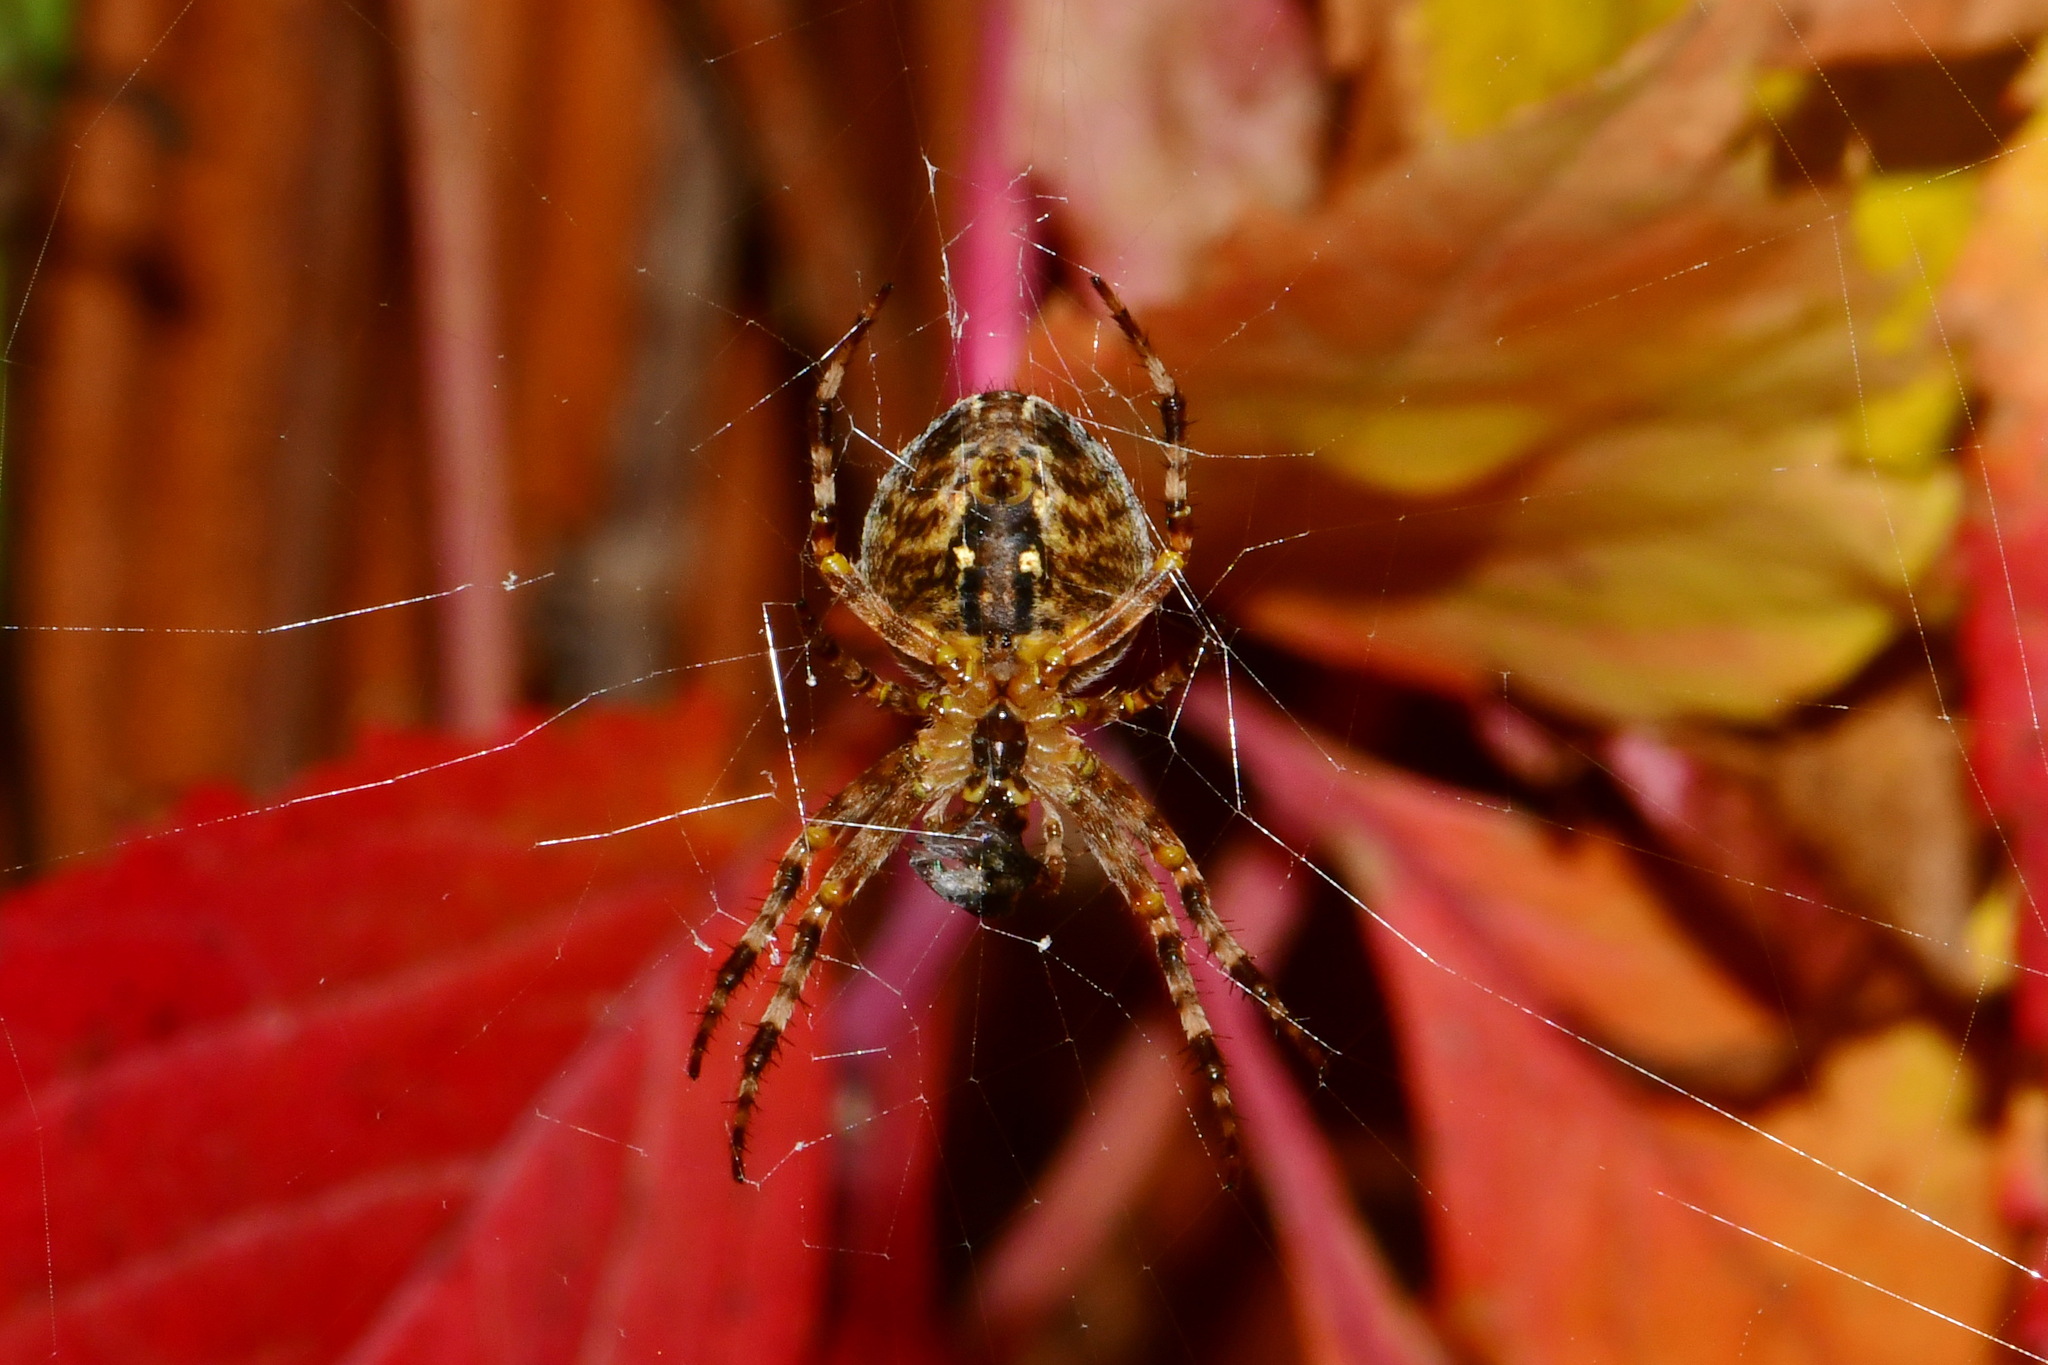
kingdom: Animalia
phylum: Arthropoda
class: Arachnida
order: Araneae
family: Araneidae
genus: Araneus
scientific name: Araneus diadematus
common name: Cross orbweaver
